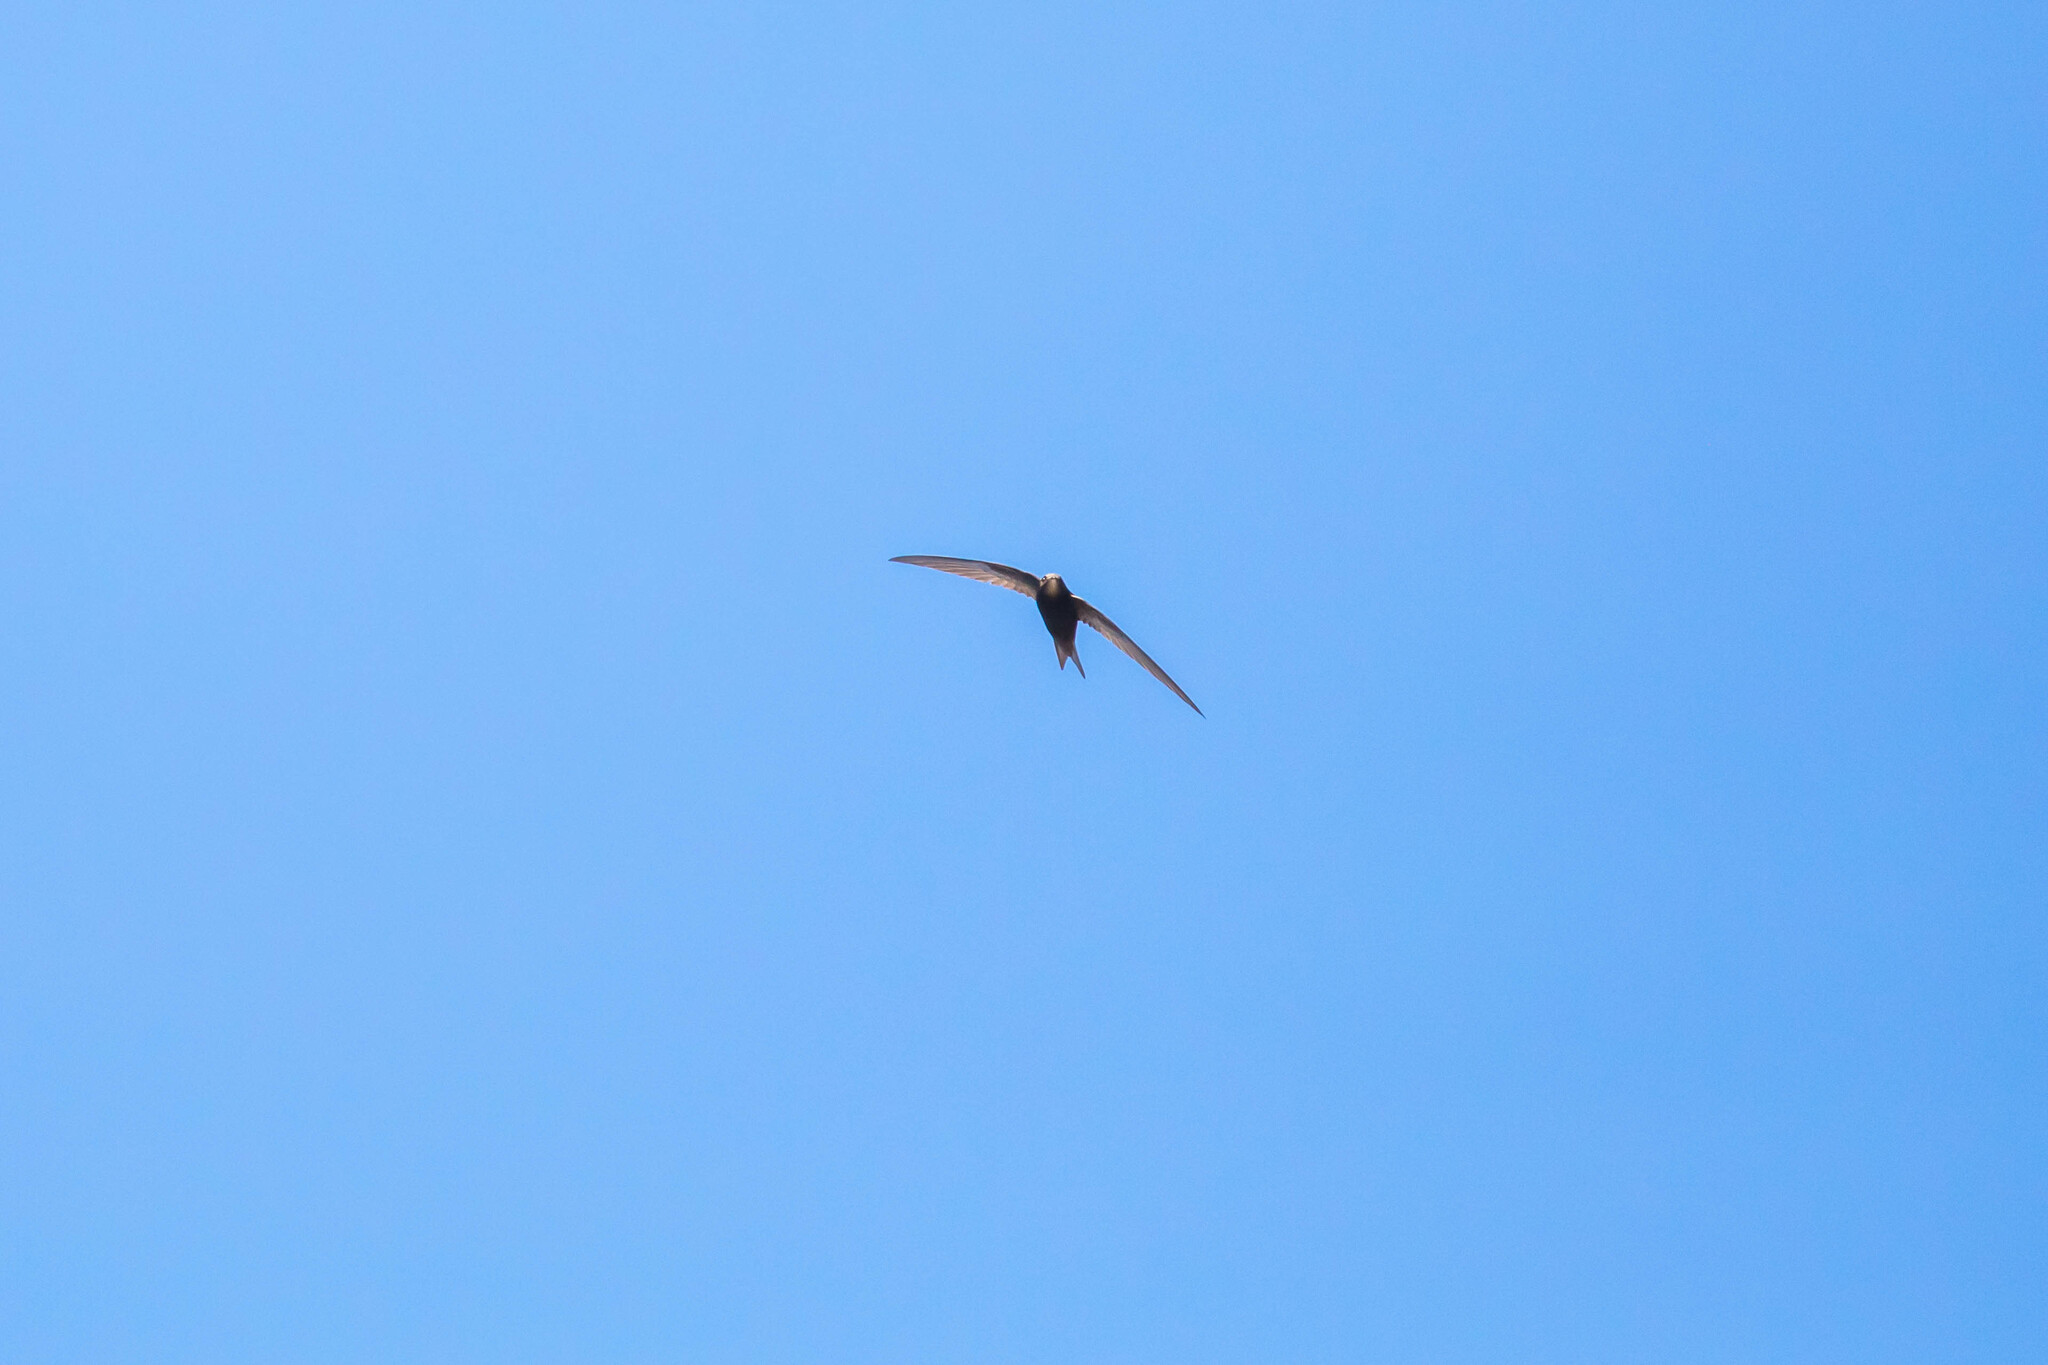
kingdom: Animalia
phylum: Chordata
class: Aves
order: Apodiformes
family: Apodidae
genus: Apus
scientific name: Apus apus
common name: Common swift
